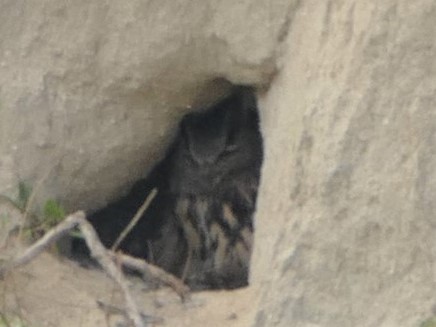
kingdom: Animalia
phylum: Chordata
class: Aves
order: Strigiformes
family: Strigidae
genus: Bubo
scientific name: Bubo bubo
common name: Eurasian eagle-owl
